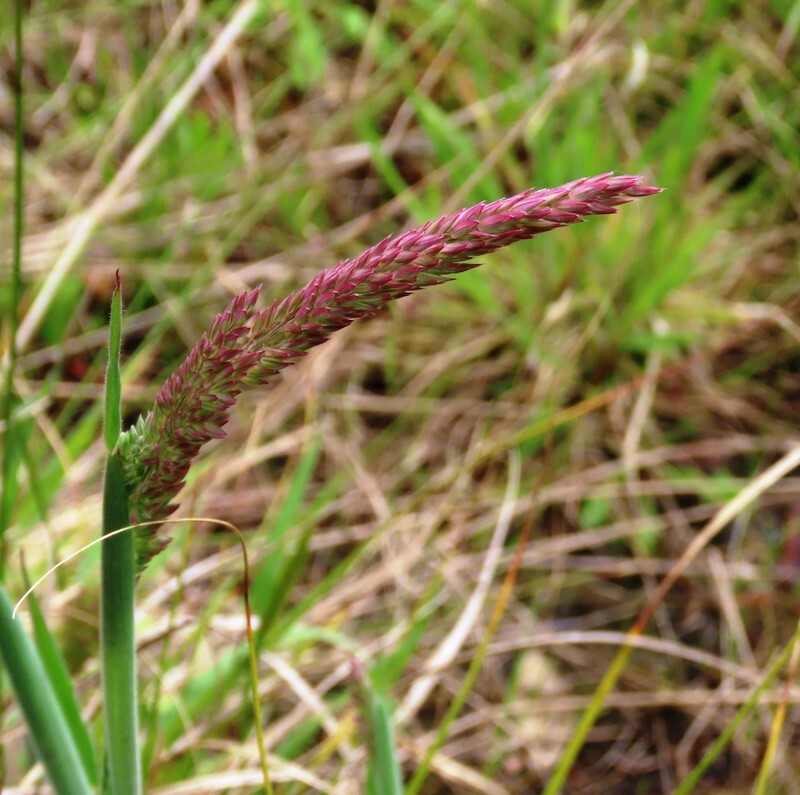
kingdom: Plantae
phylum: Tracheophyta
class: Liliopsida
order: Poales
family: Poaceae
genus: Holcus
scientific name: Holcus lanatus
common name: Yorkshire-fog
